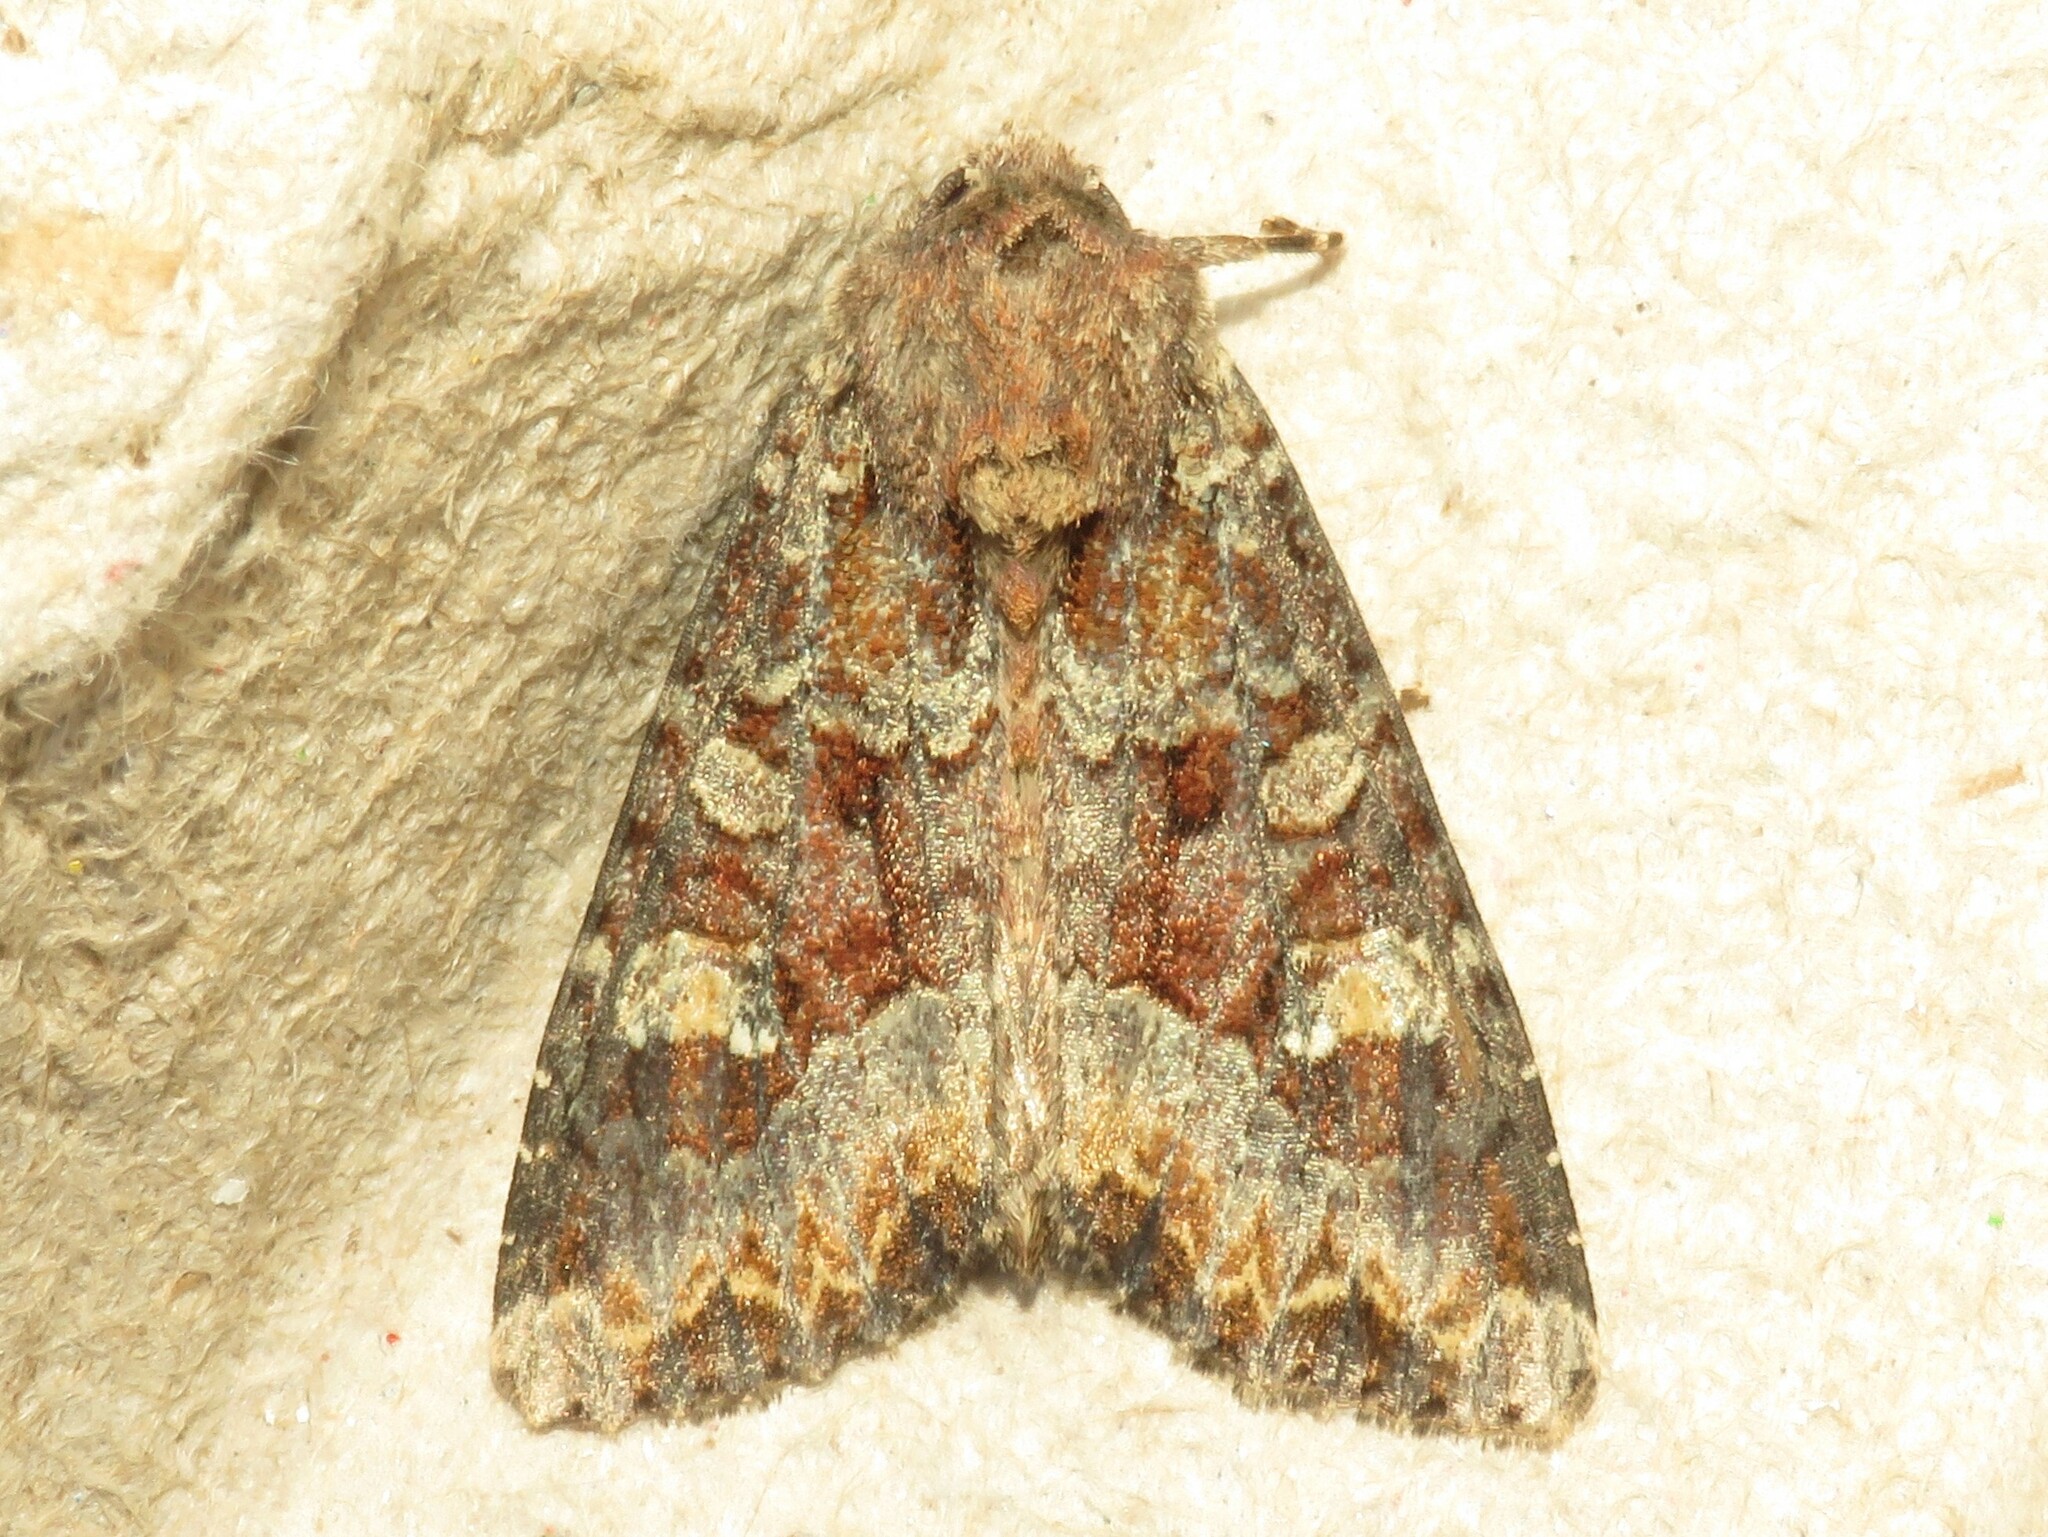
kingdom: Animalia
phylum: Arthropoda
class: Insecta
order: Lepidoptera
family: Noctuidae
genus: Apamea
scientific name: Apamea amputatrix
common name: Yellow-headed cutworm moth
